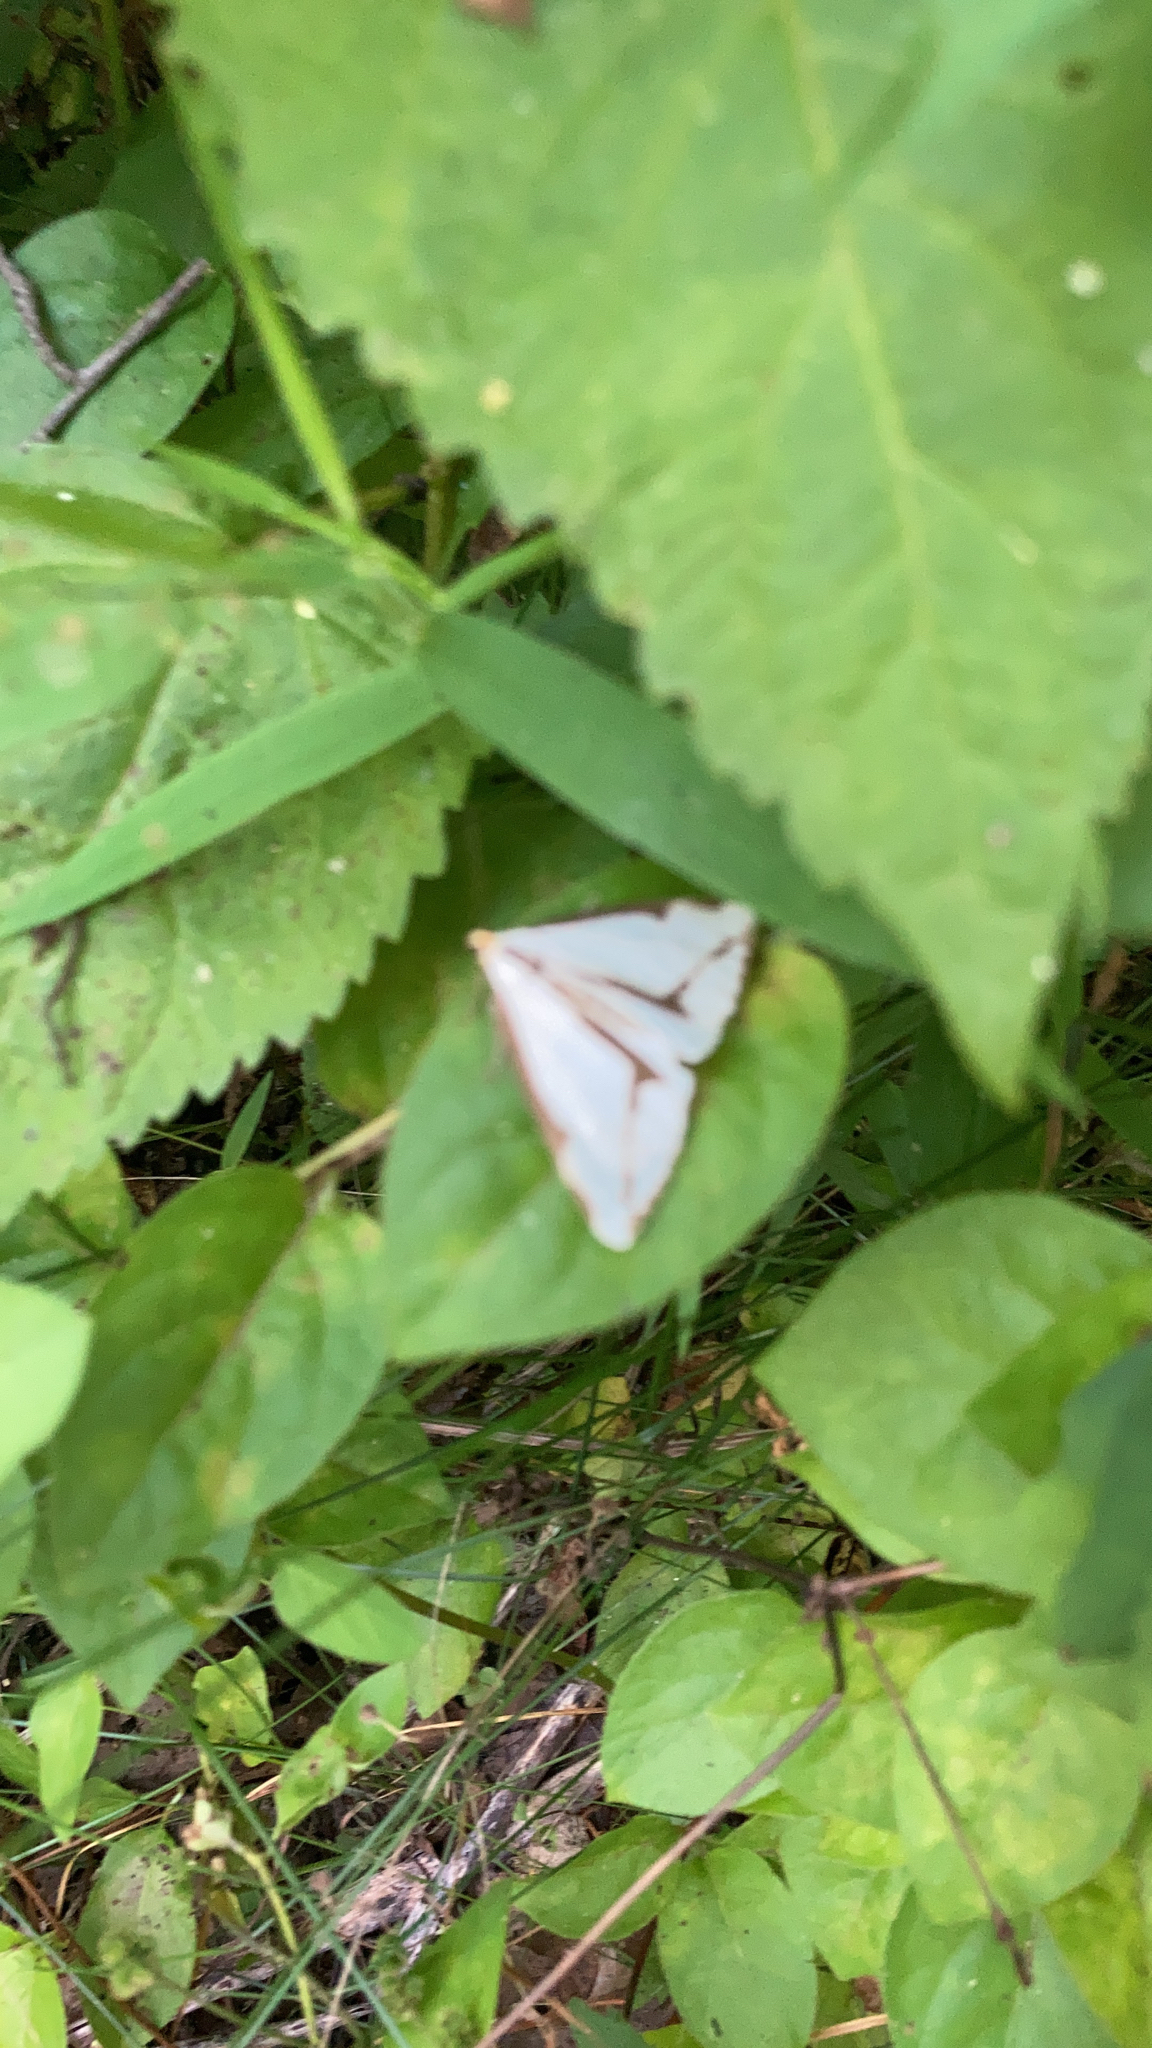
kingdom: Animalia
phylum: Arthropoda
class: Insecta
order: Lepidoptera
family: Erebidae
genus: Haploa
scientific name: Haploa lecontei
